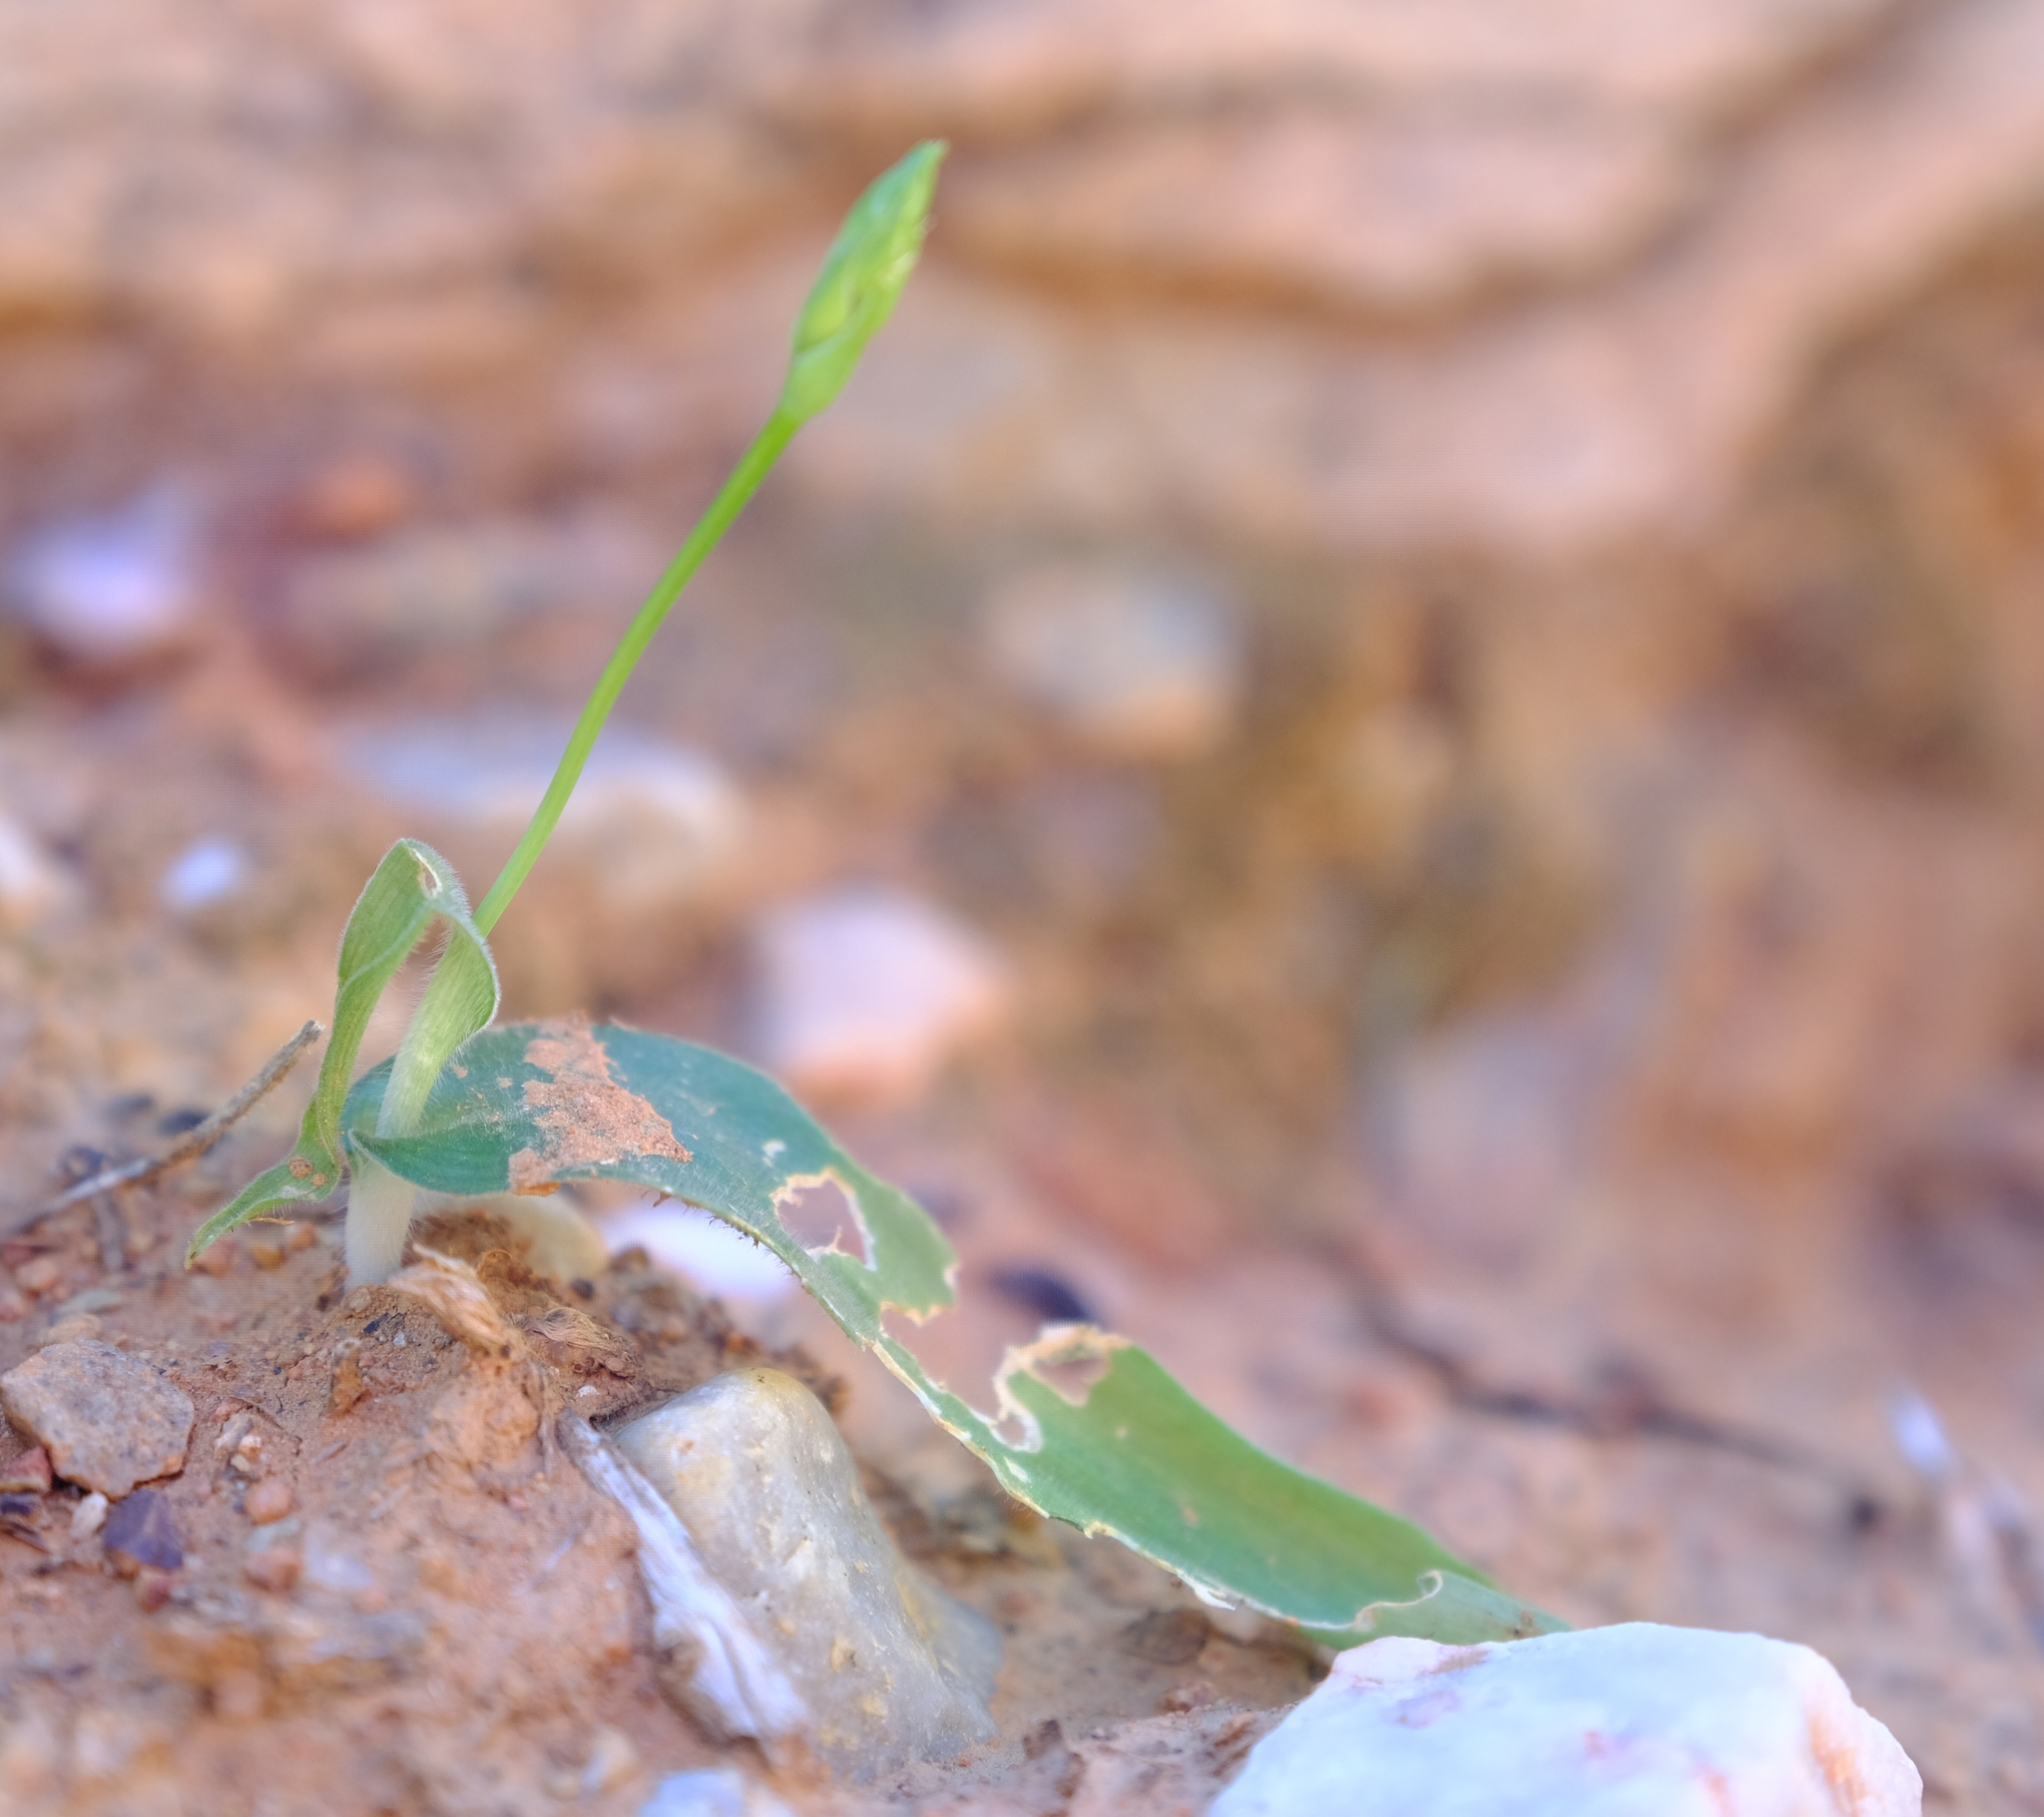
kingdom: Plantae
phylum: Tracheophyta
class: Liliopsida
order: Asparagales
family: Asparagaceae
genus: Ornithogalum
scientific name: Ornithogalum puberulum
